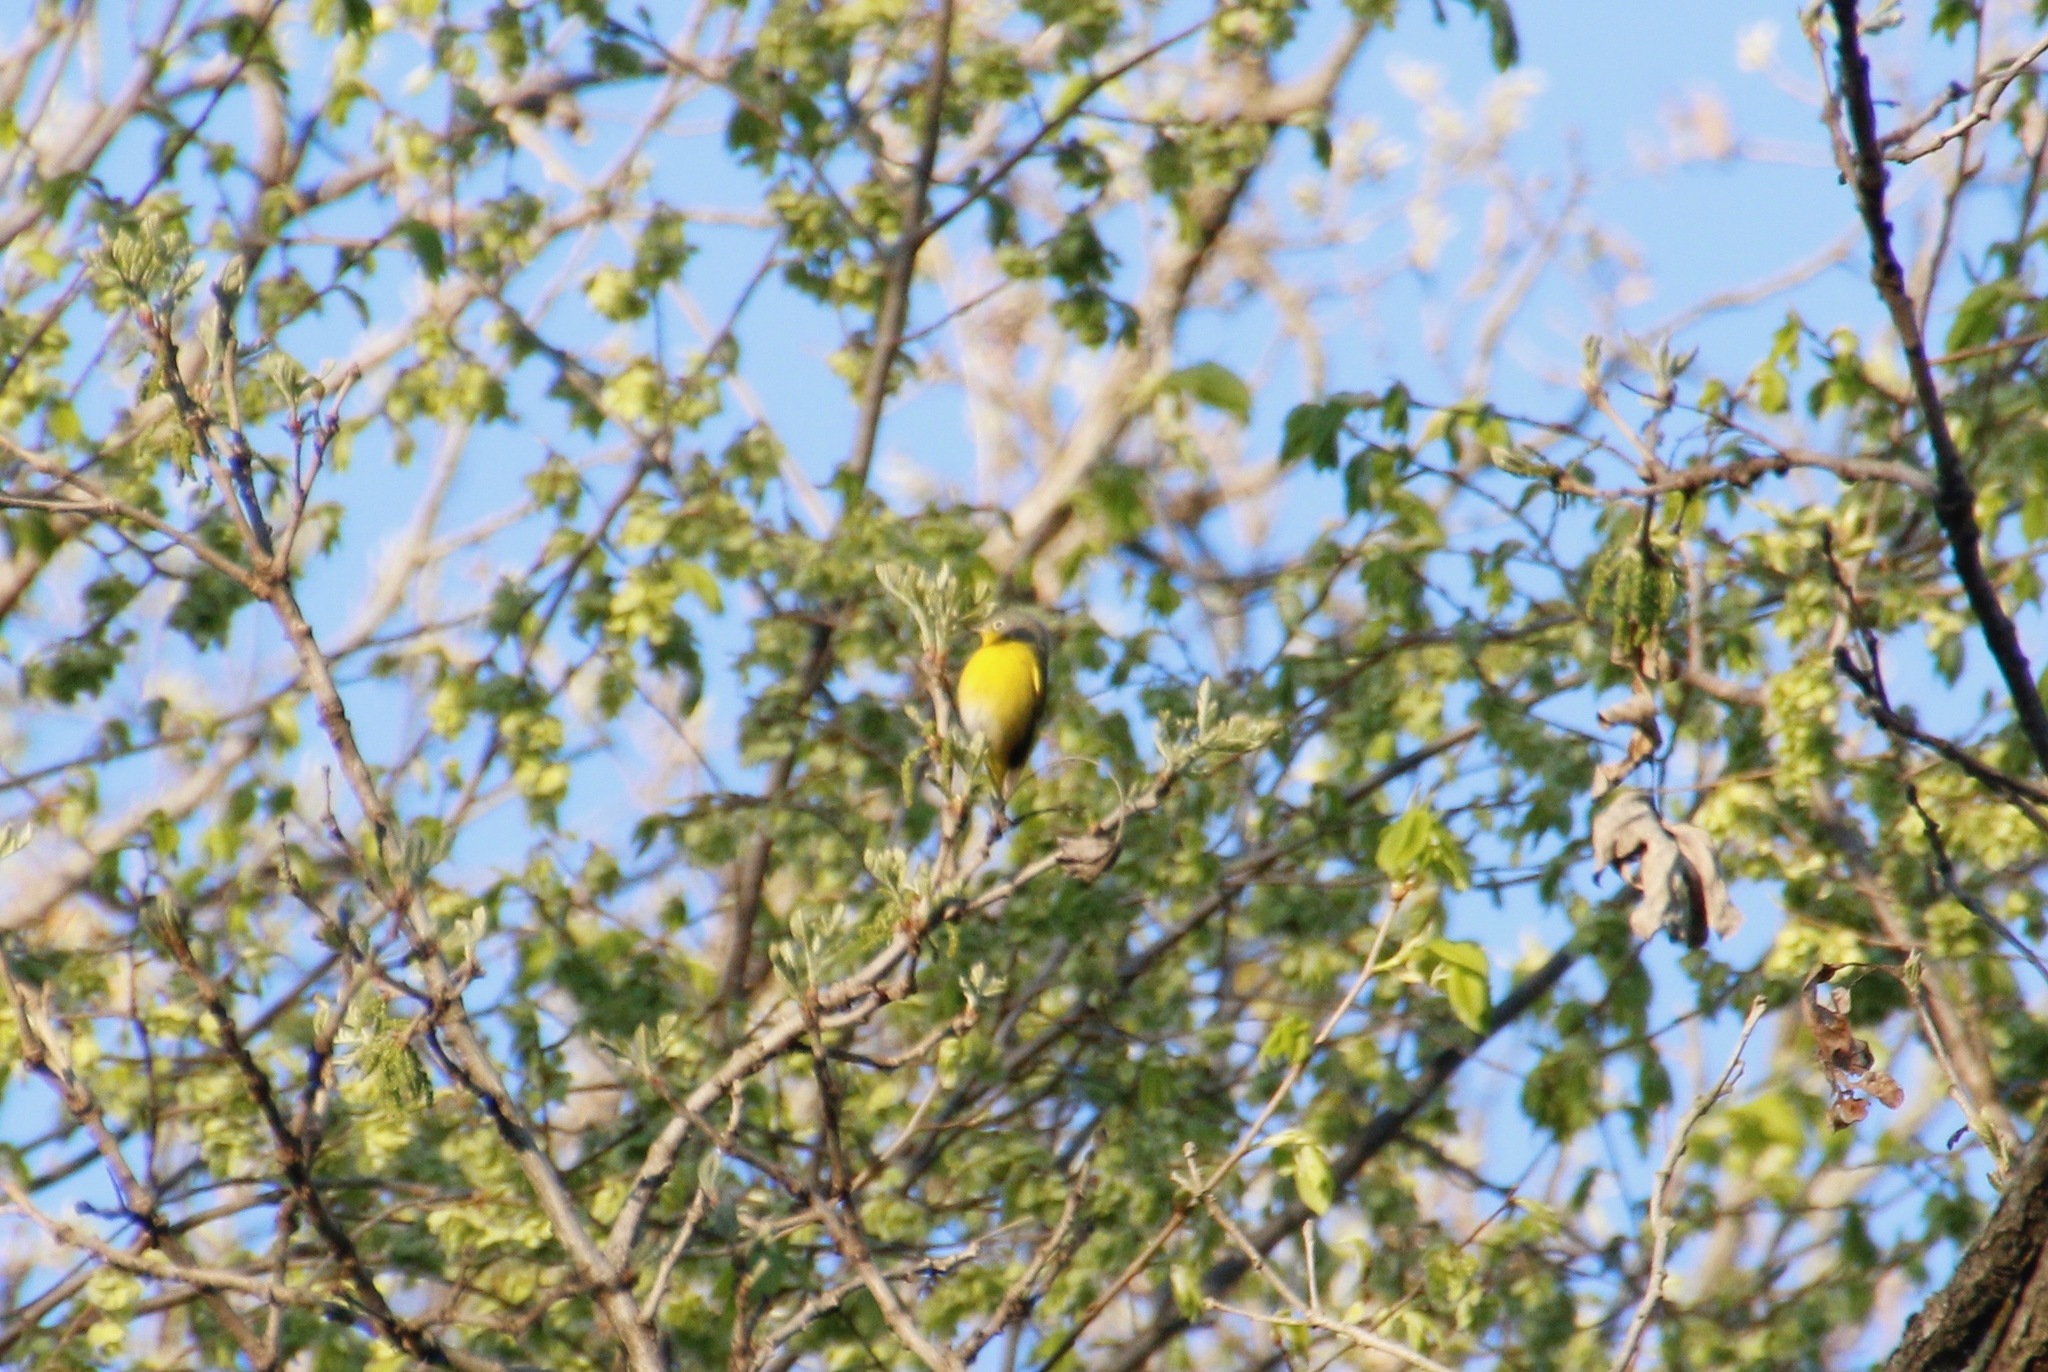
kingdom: Animalia
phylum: Chordata
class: Aves
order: Passeriformes
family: Parulidae
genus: Leiothlypis
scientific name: Leiothlypis ruficapilla
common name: Nashville warbler
